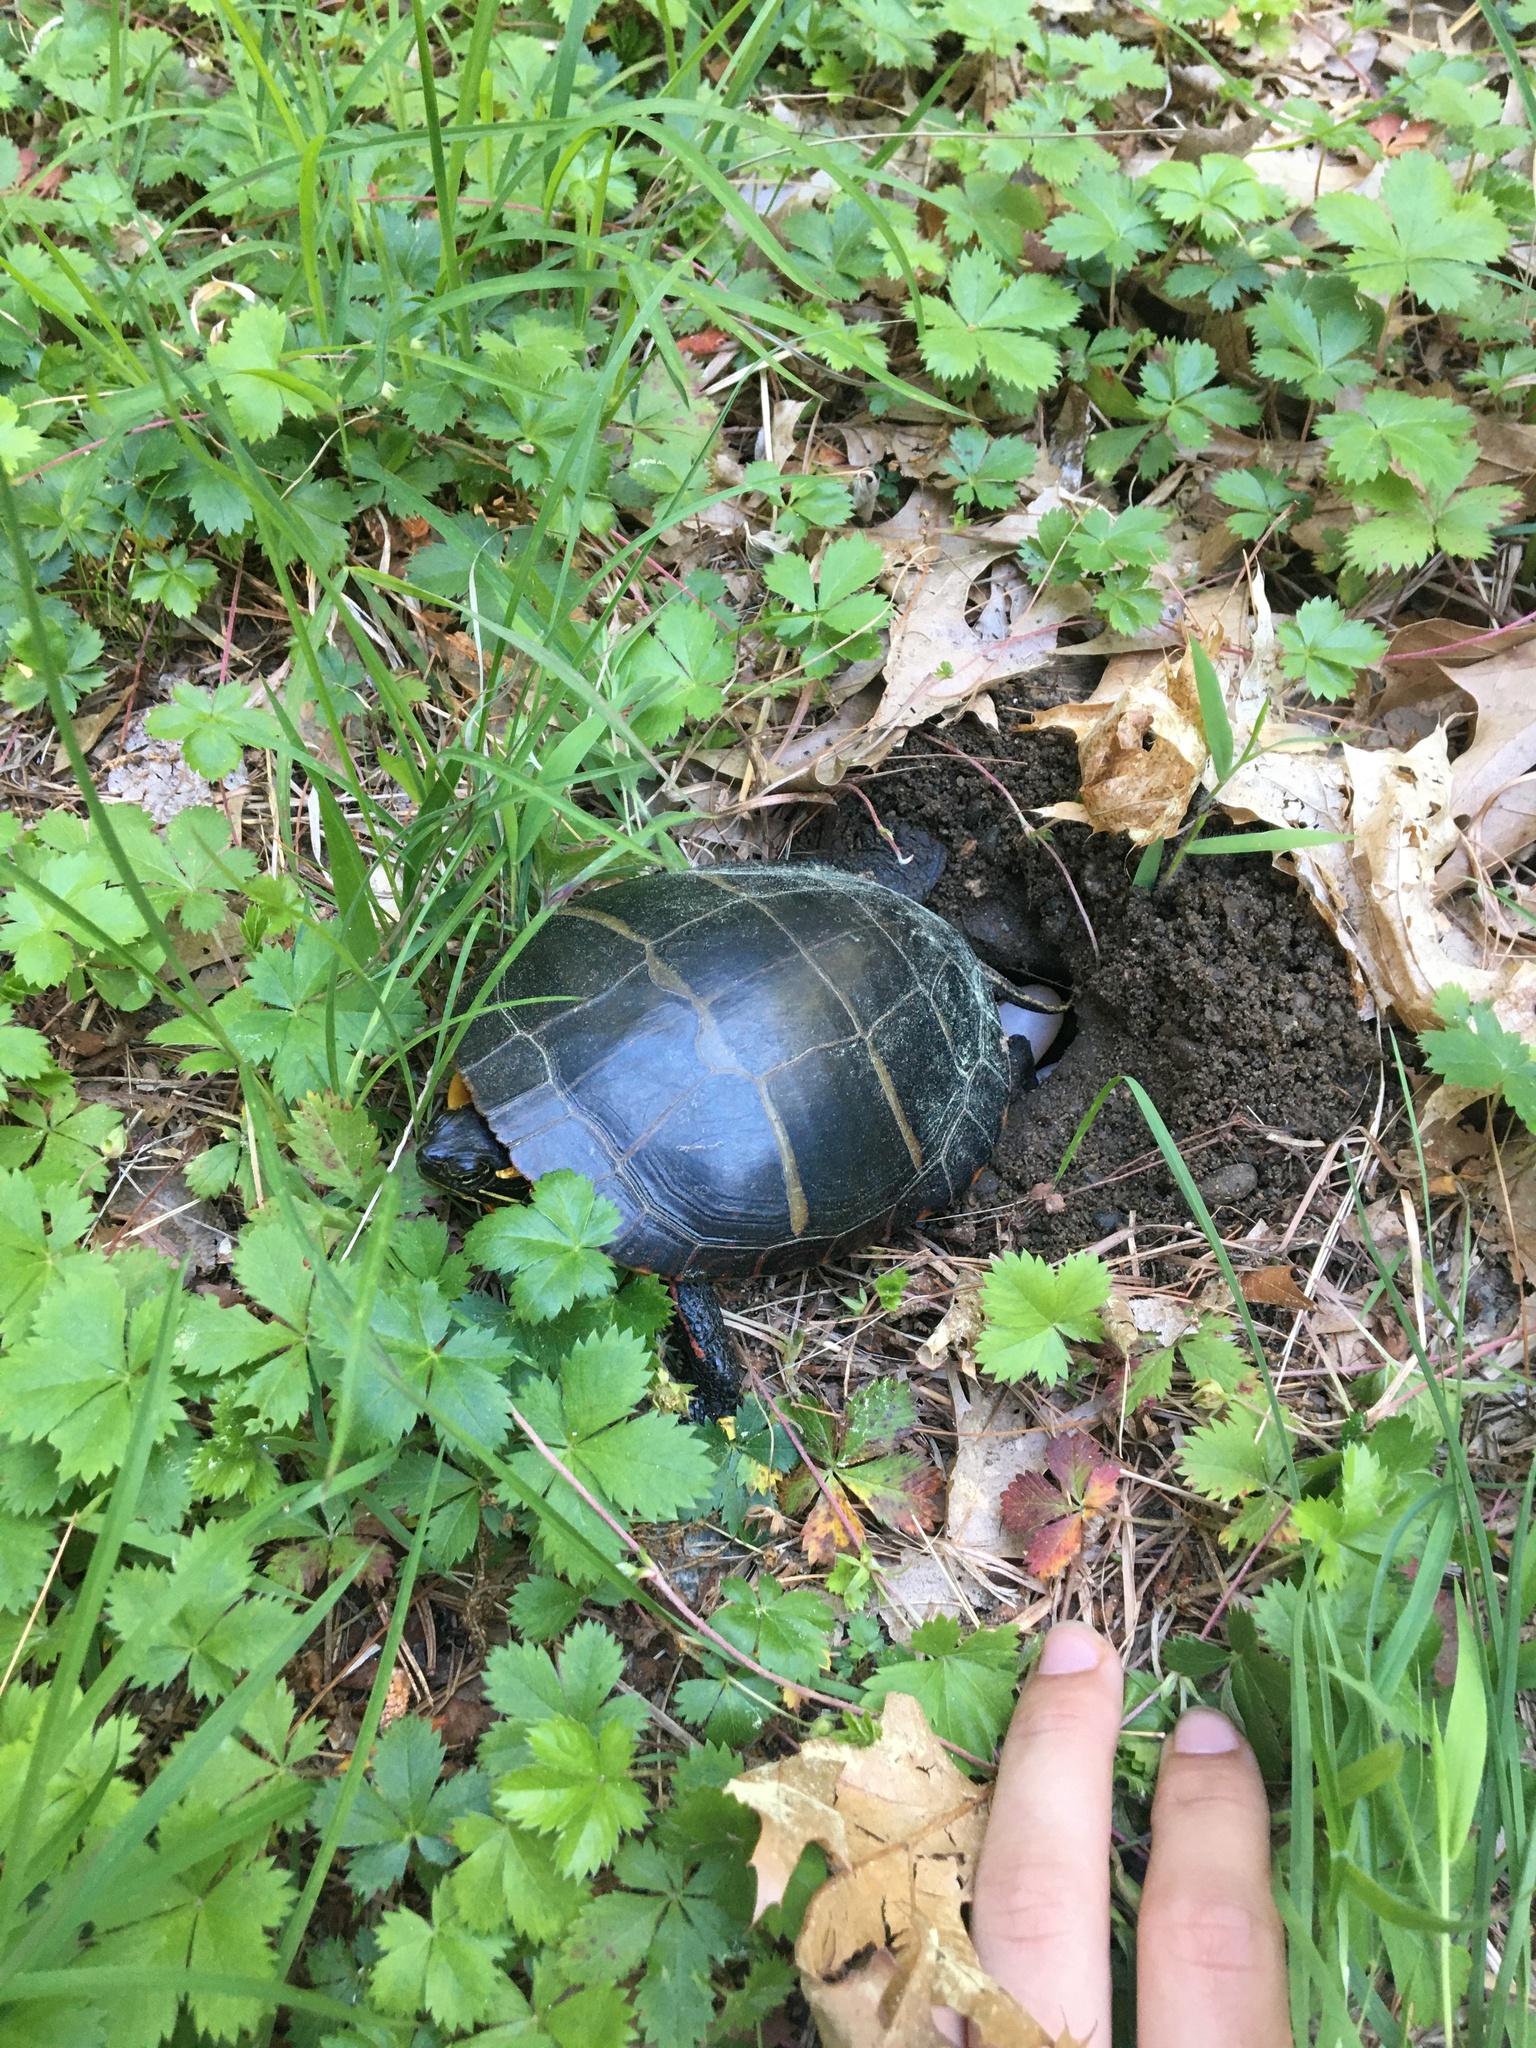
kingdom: Animalia
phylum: Chordata
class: Testudines
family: Emydidae
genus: Chrysemys
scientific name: Chrysemys picta
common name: Painted turtle
